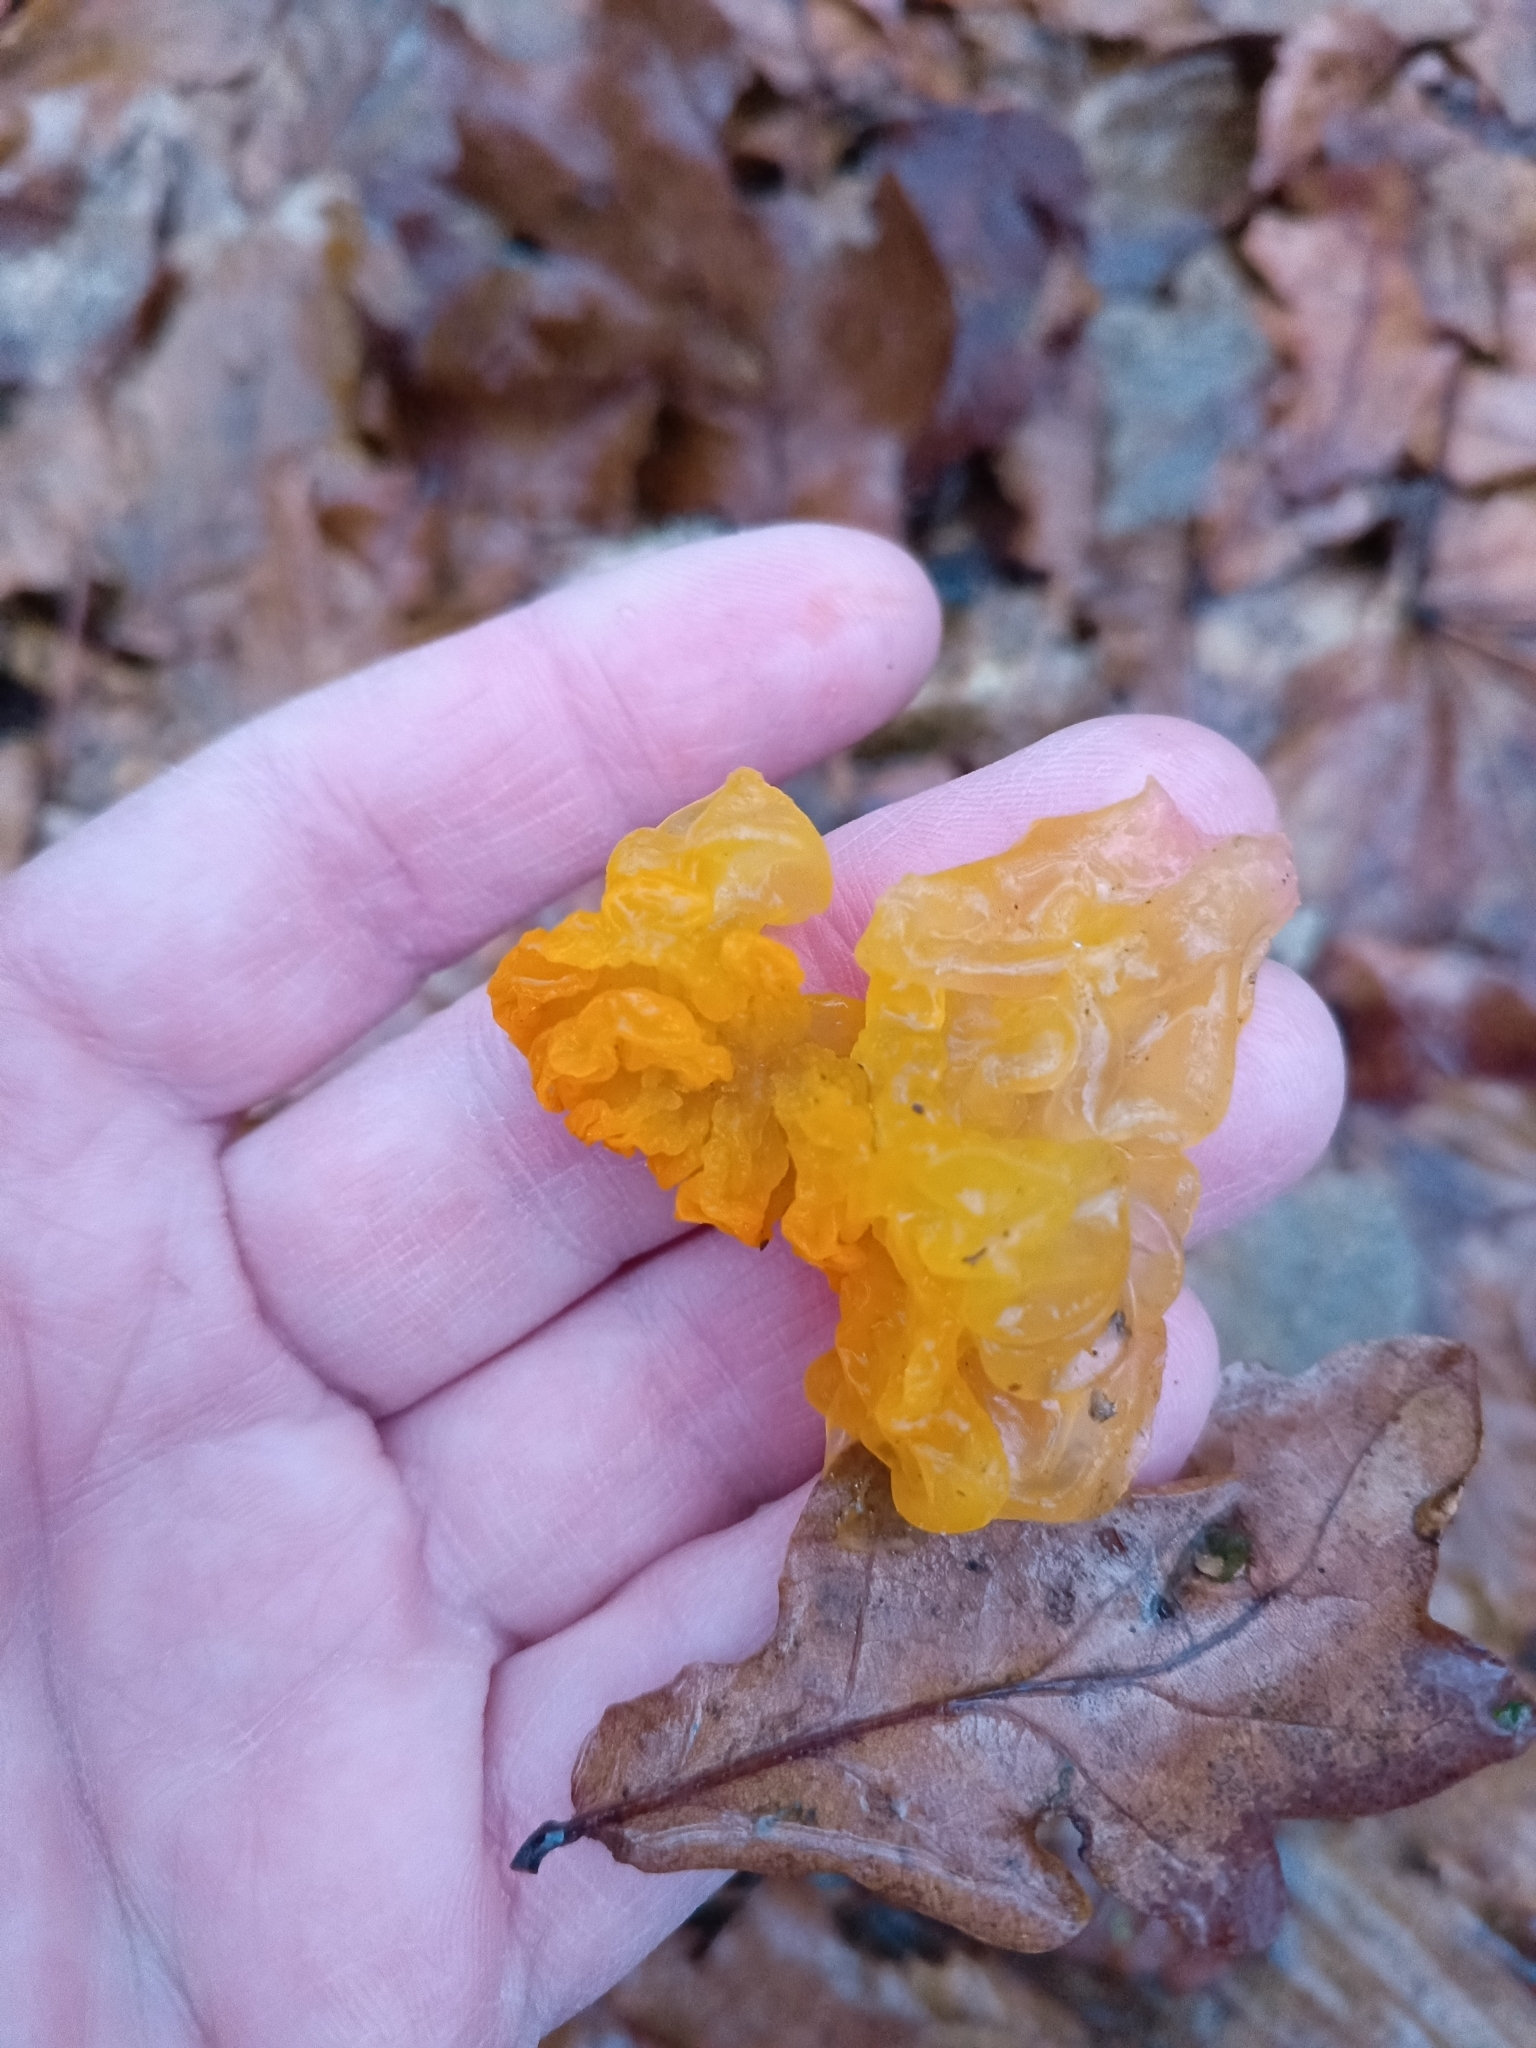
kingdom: Fungi
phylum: Basidiomycota
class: Tremellomycetes
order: Tremellales
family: Tremellaceae
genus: Tremella
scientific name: Tremella mesenterica
